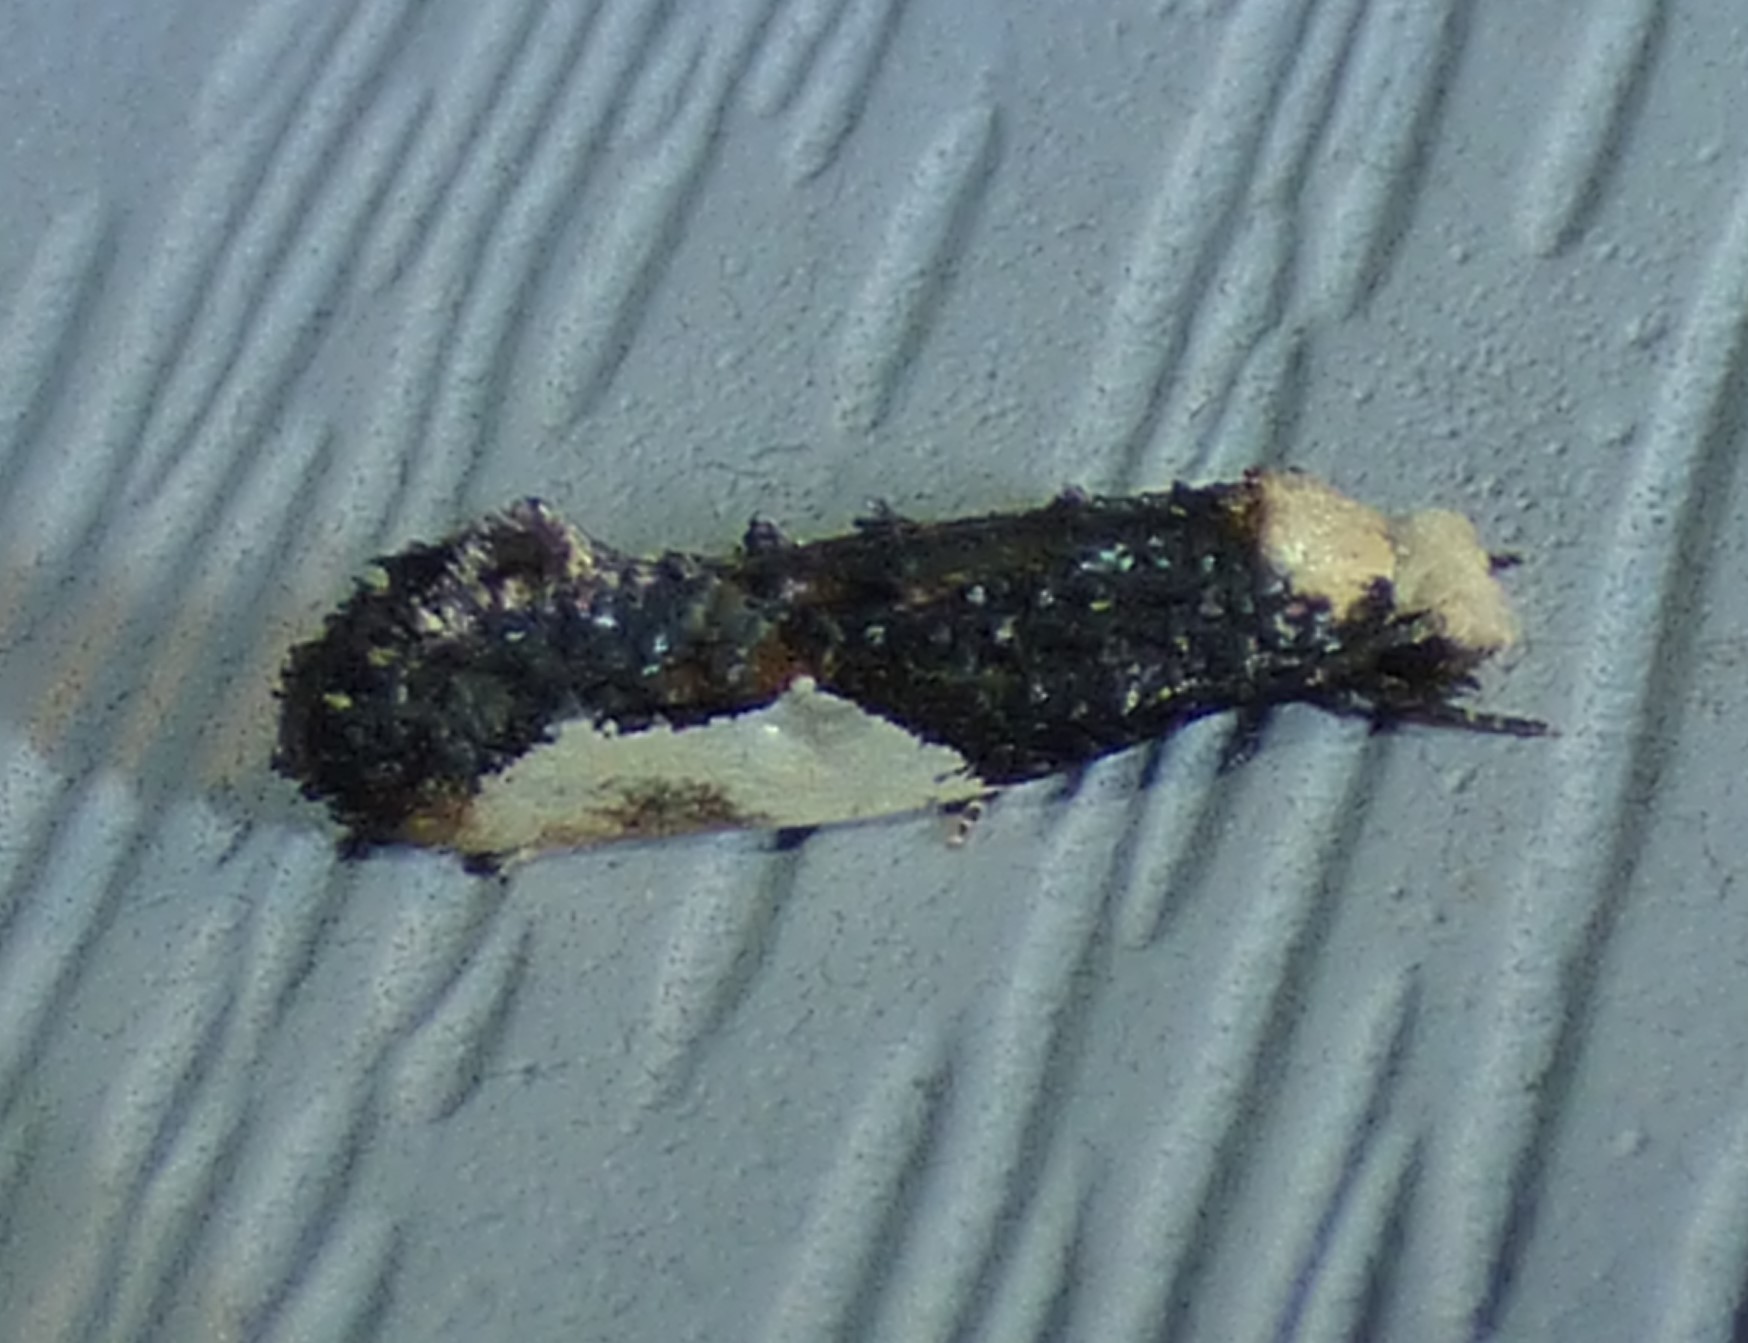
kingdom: Animalia
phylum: Arthropoda
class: Insecta
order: Lepidoptera
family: Tineidae
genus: Monopis
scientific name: Monopis longella
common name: Pavlovski's monopis moth
